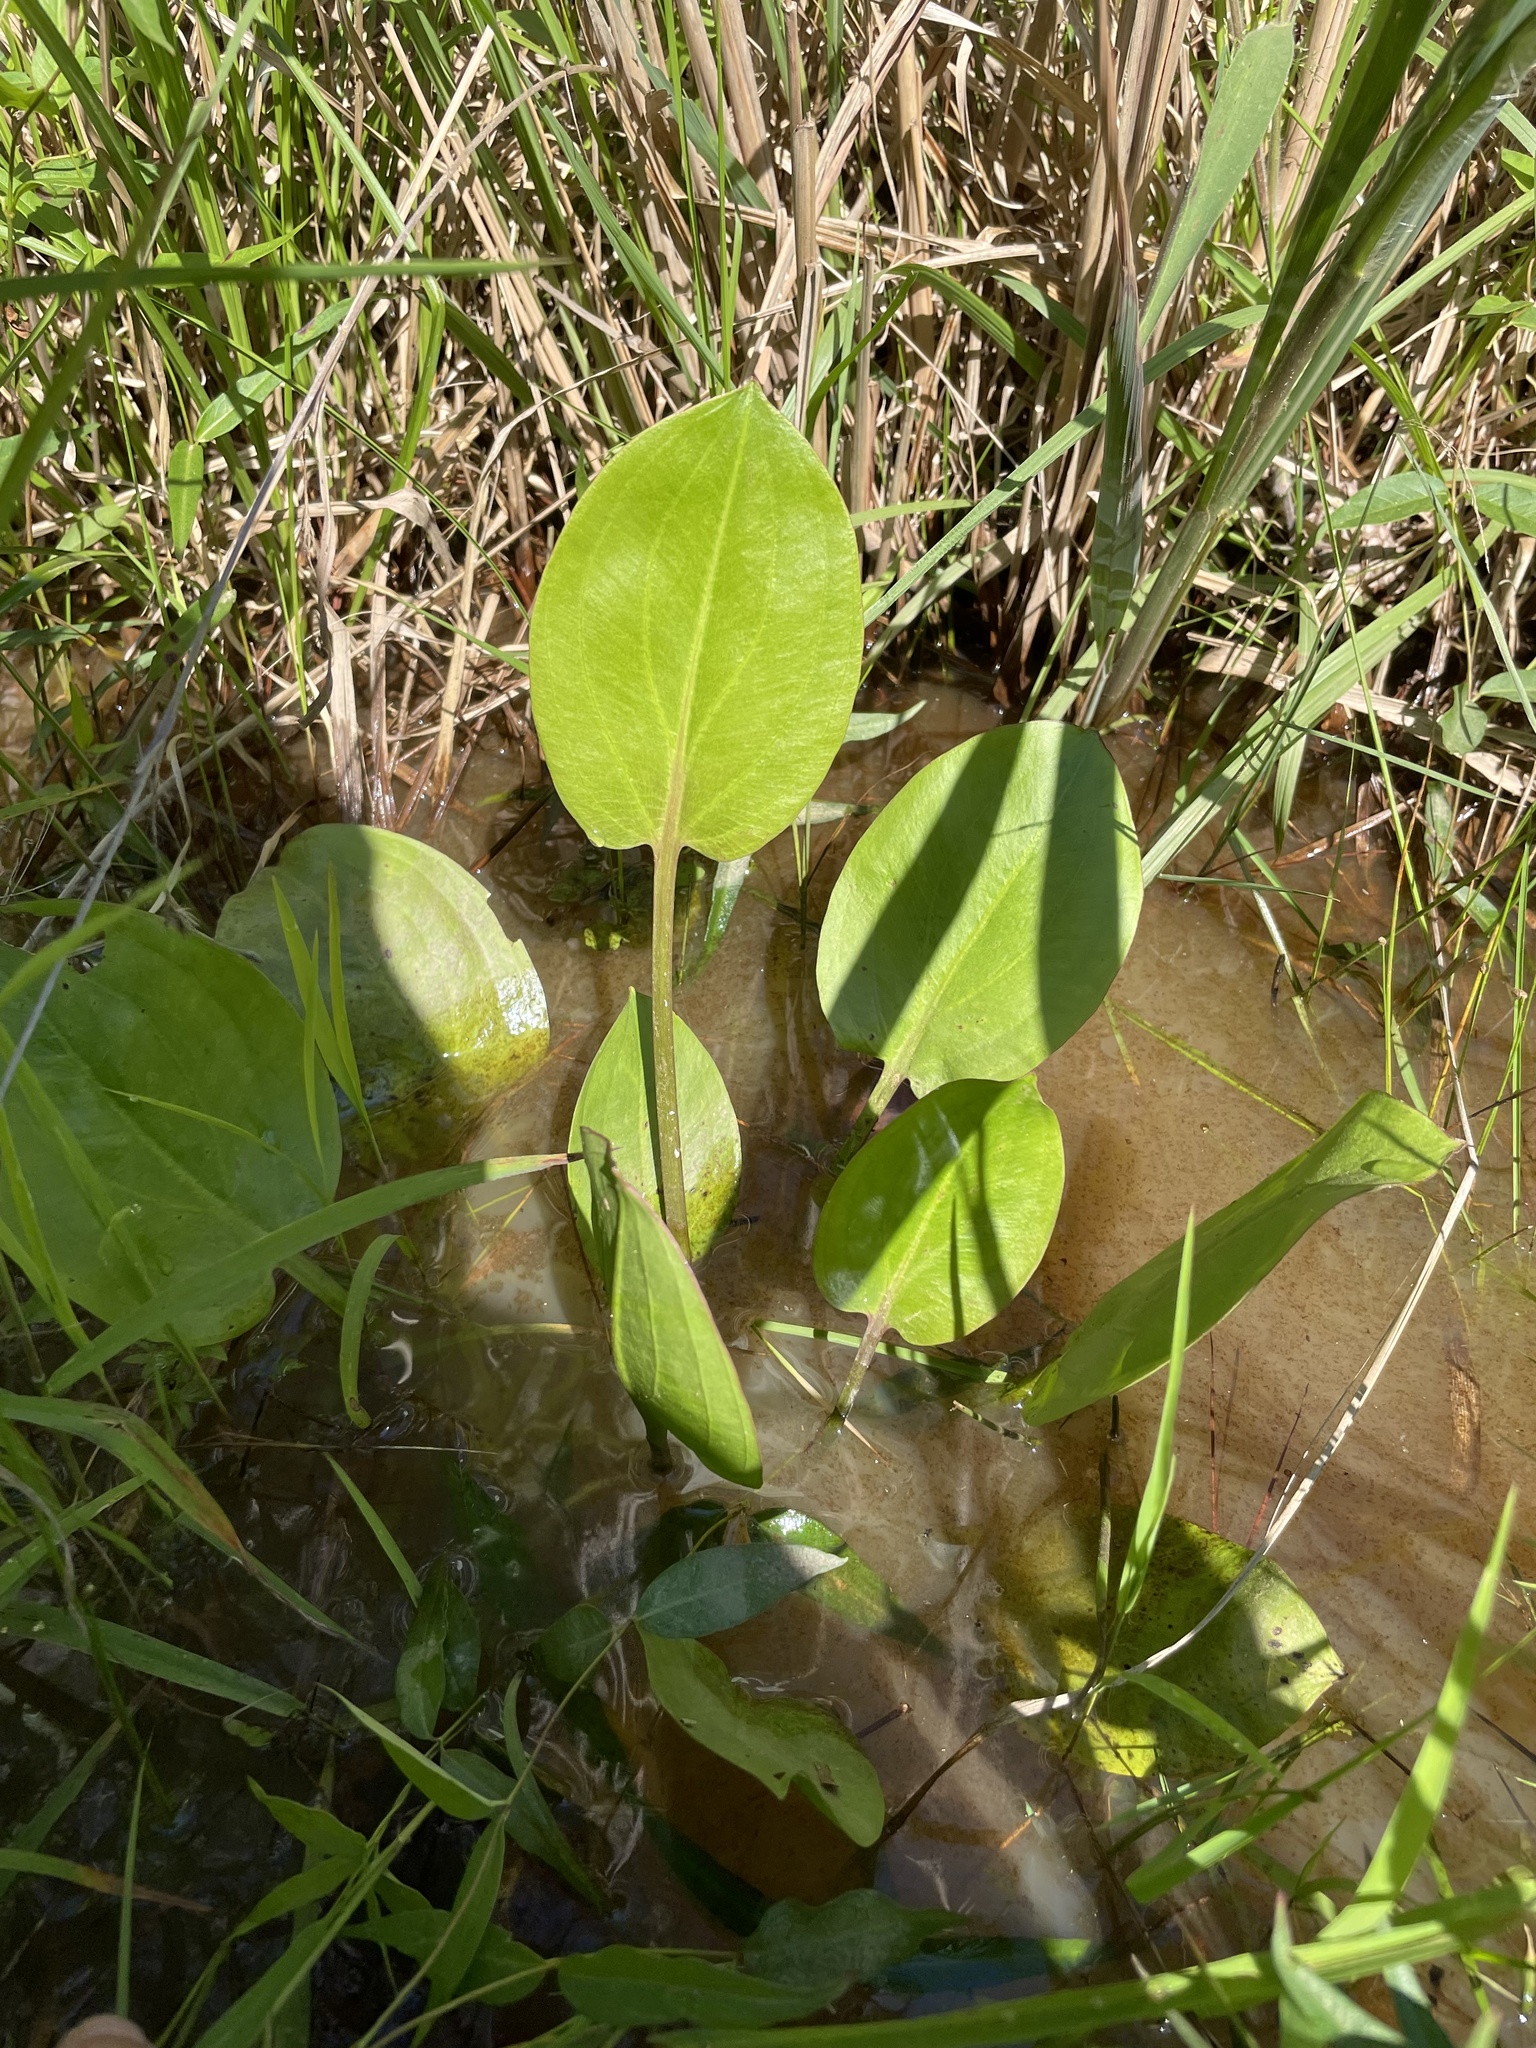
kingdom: Plantae
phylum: Tracheophyta
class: Liliopsida
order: Alismatales
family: Alismataceae
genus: Alisma
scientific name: Alisma subcordatum
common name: Southern water-plantain
